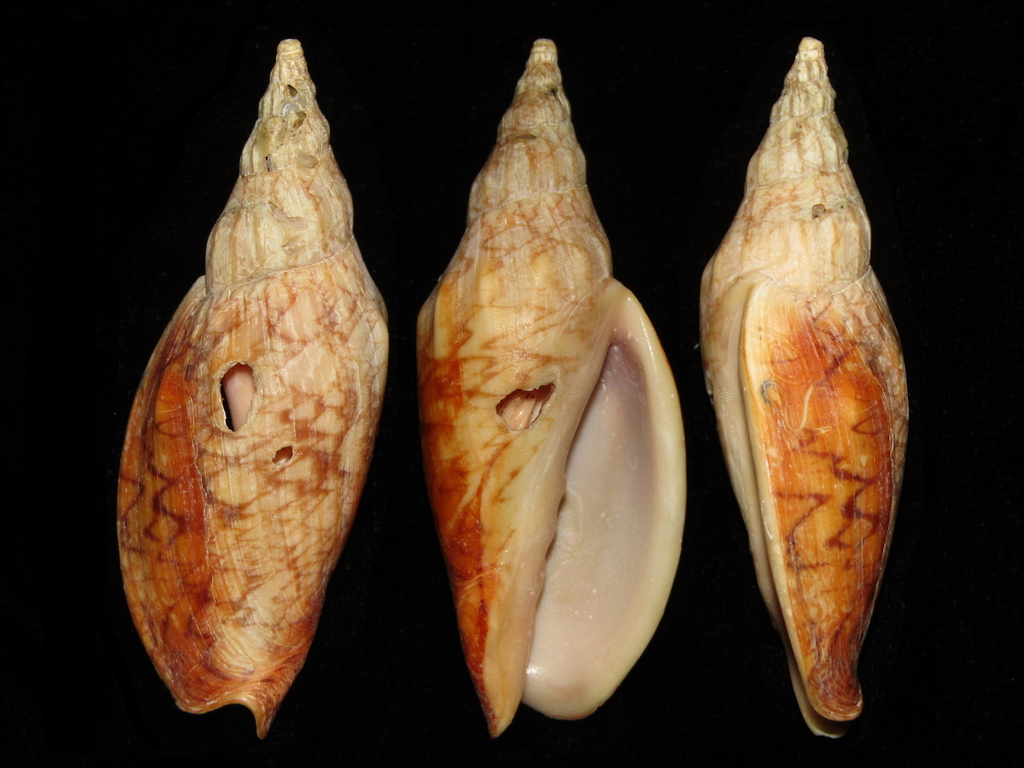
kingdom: Animalia
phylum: Mollusca
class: Gastropoda
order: Neogastropoda
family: Volutidae
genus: Alcithoe
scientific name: Alcithoe fusus
